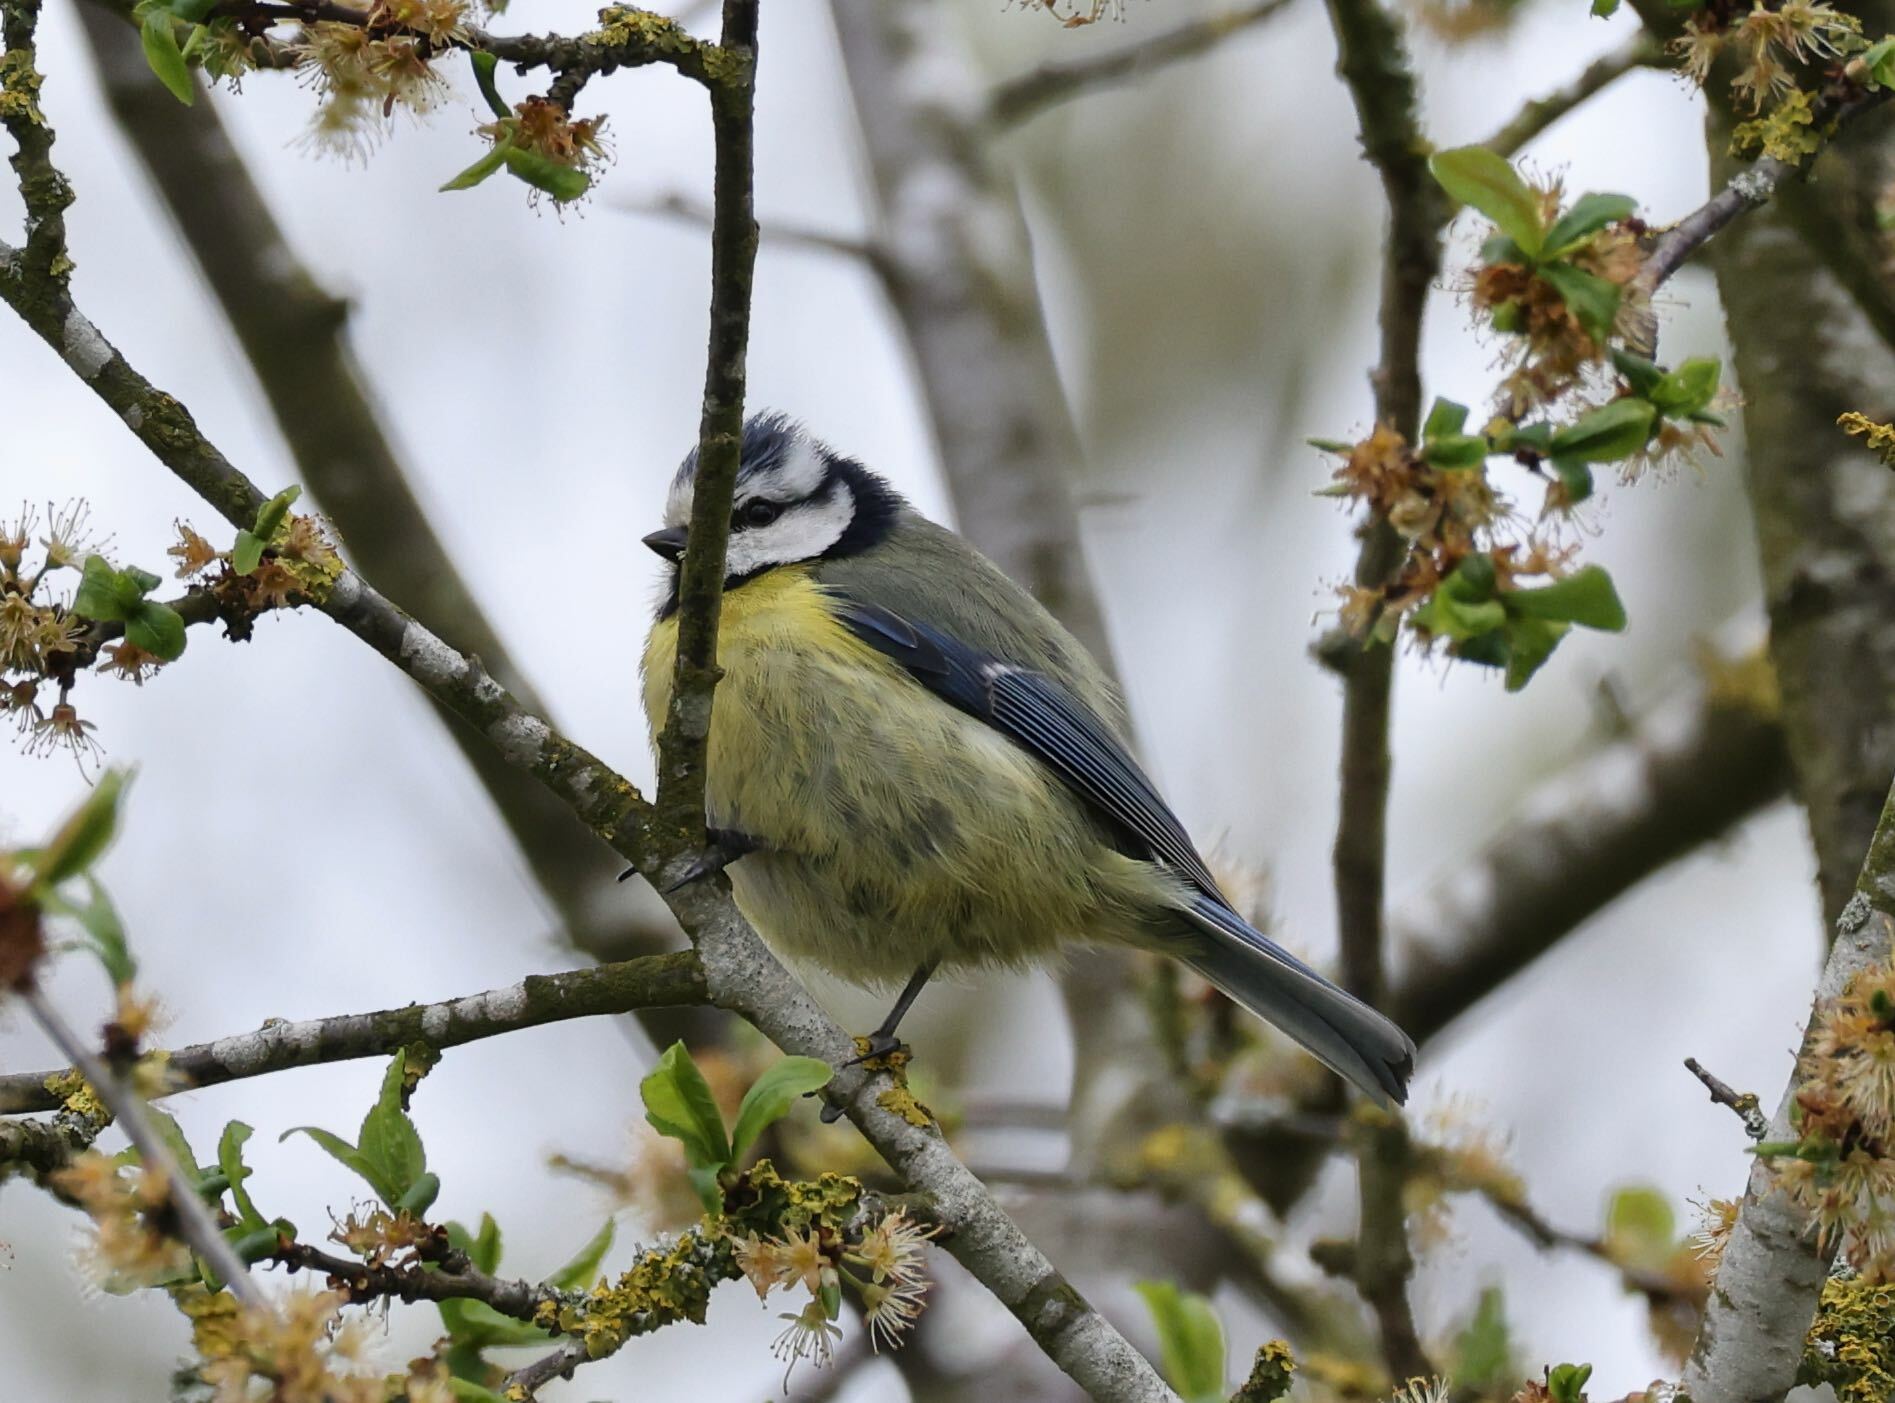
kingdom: Animalia
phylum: Chordata
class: Aves
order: Passeriformes
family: Paridae
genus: Cyanistes
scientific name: Cyanistes caeruleus
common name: Eurasian blue tit
